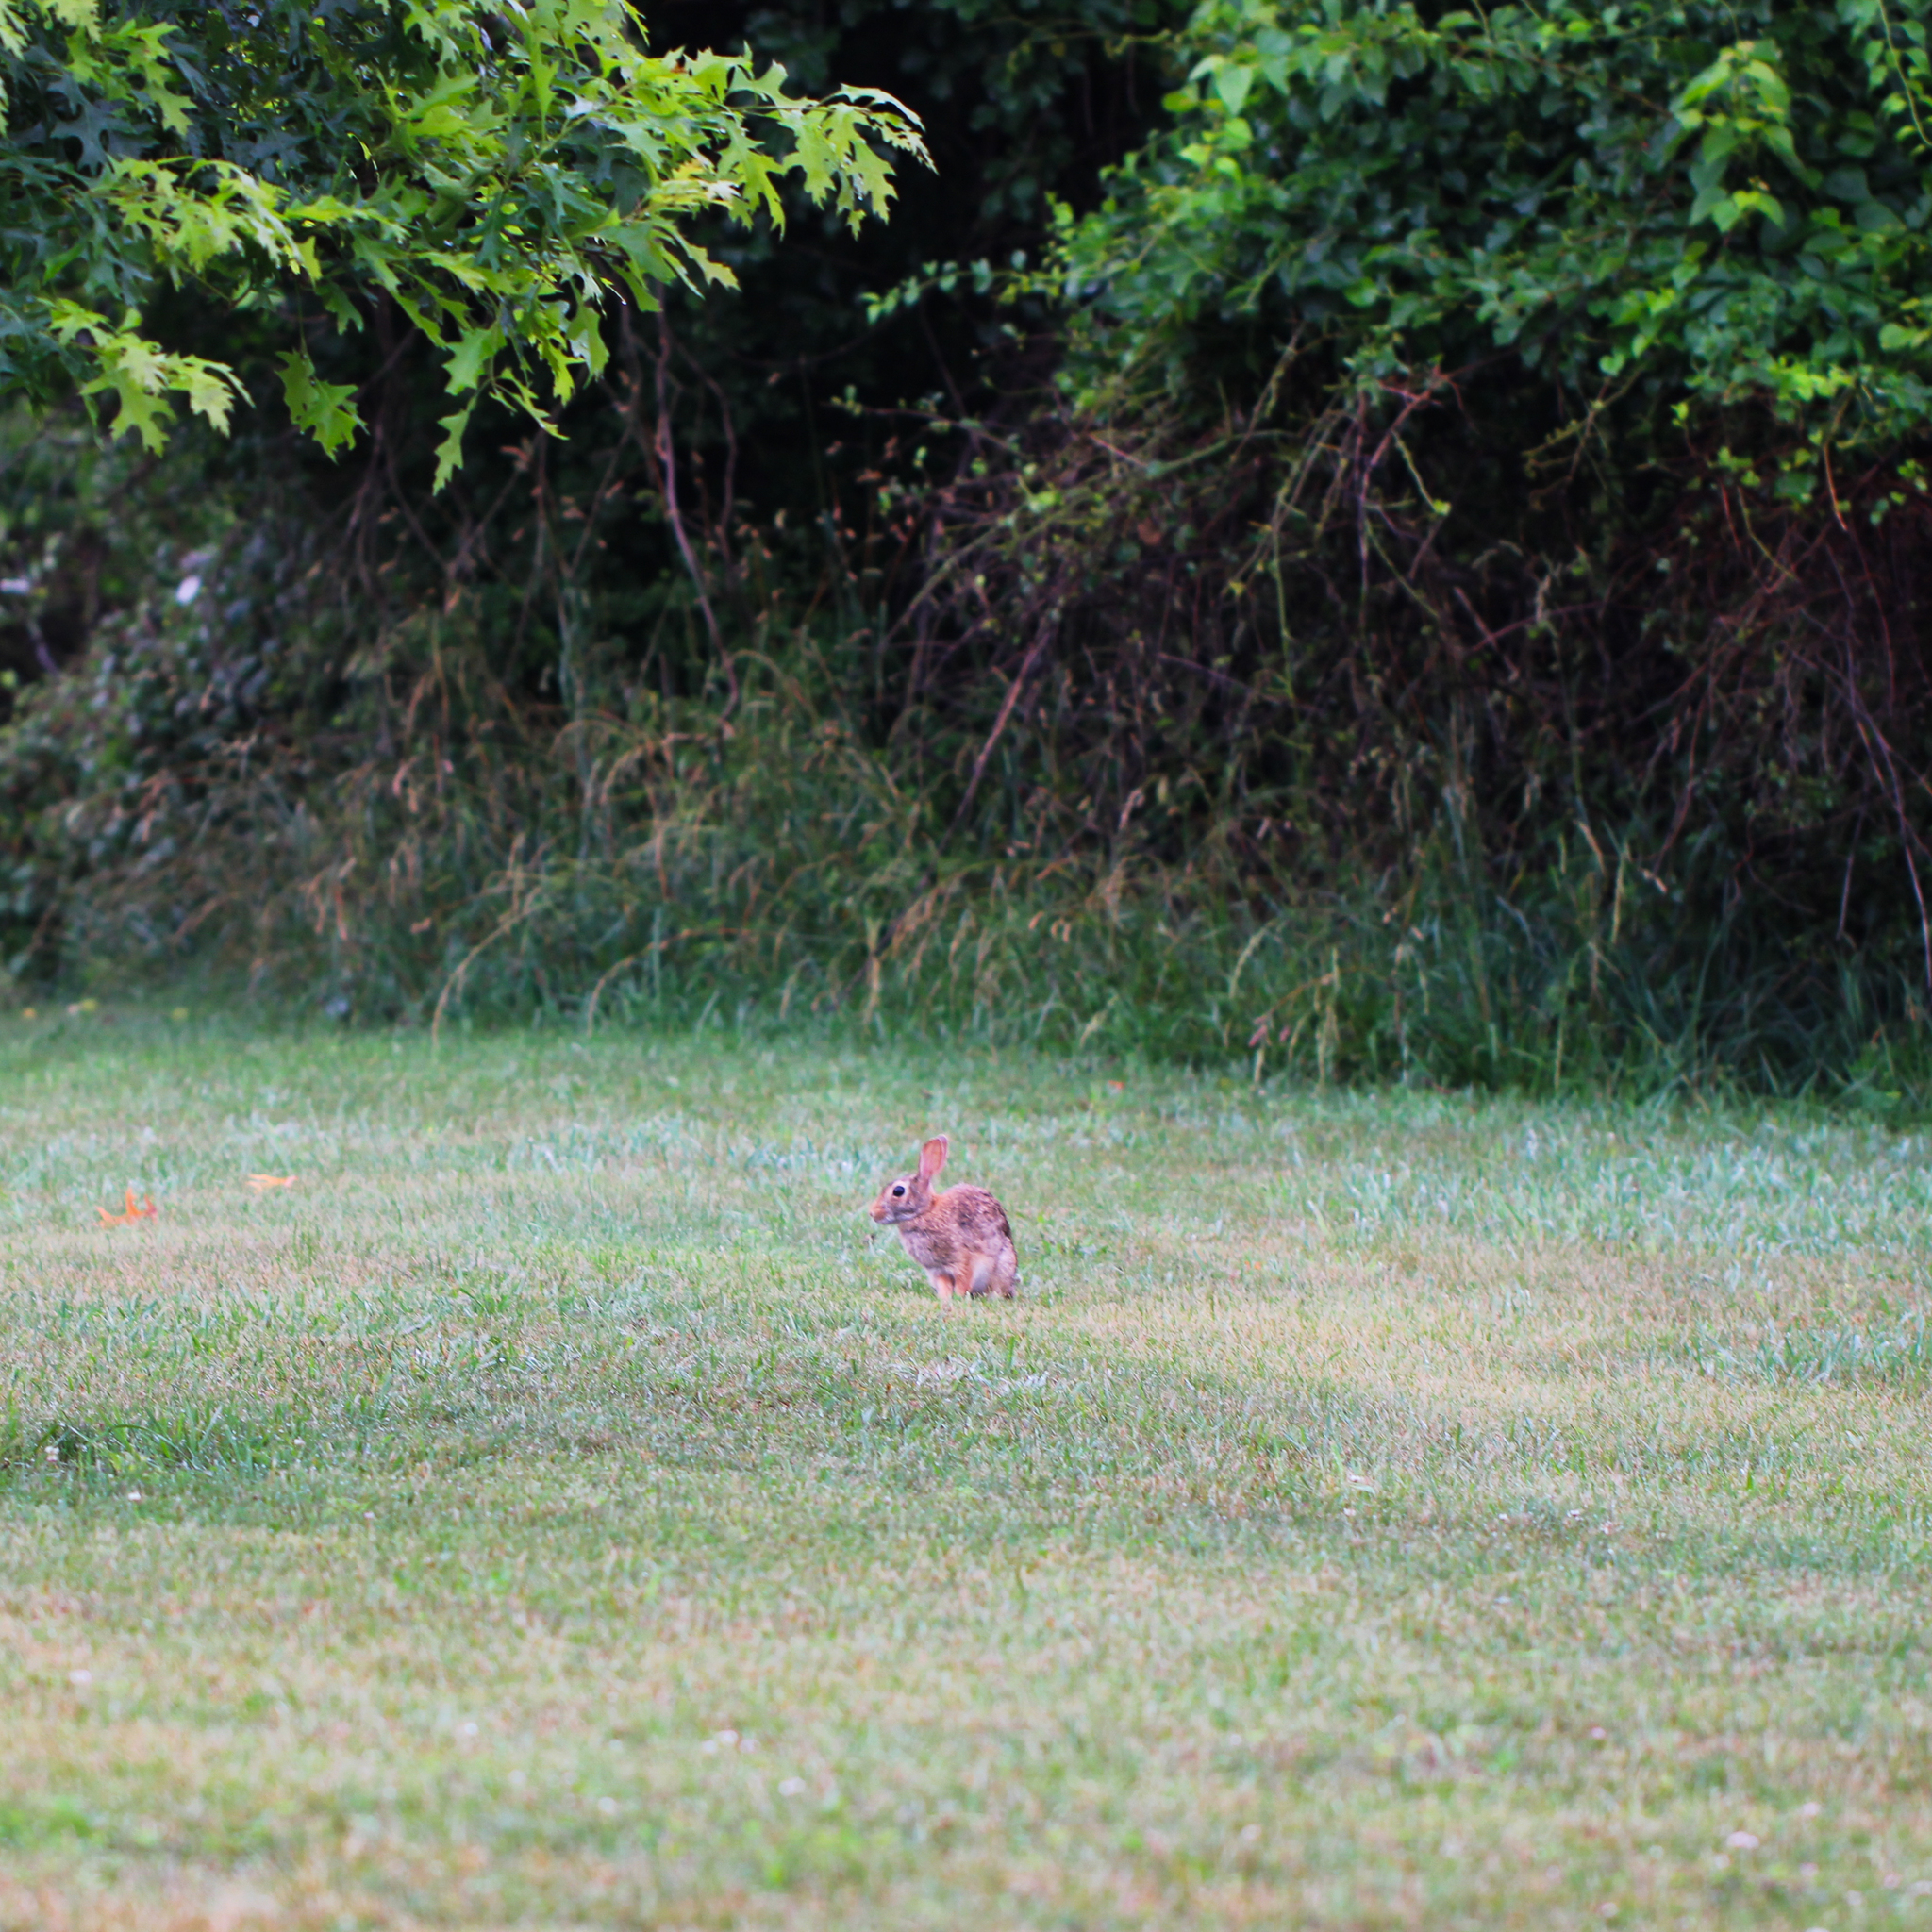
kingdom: Animalia
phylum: Chordata
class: Mammalia
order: Lagomorpha
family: Leporidae
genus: Sylvilagus
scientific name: Sylvilagus floridanus
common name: Eastern cottontail
